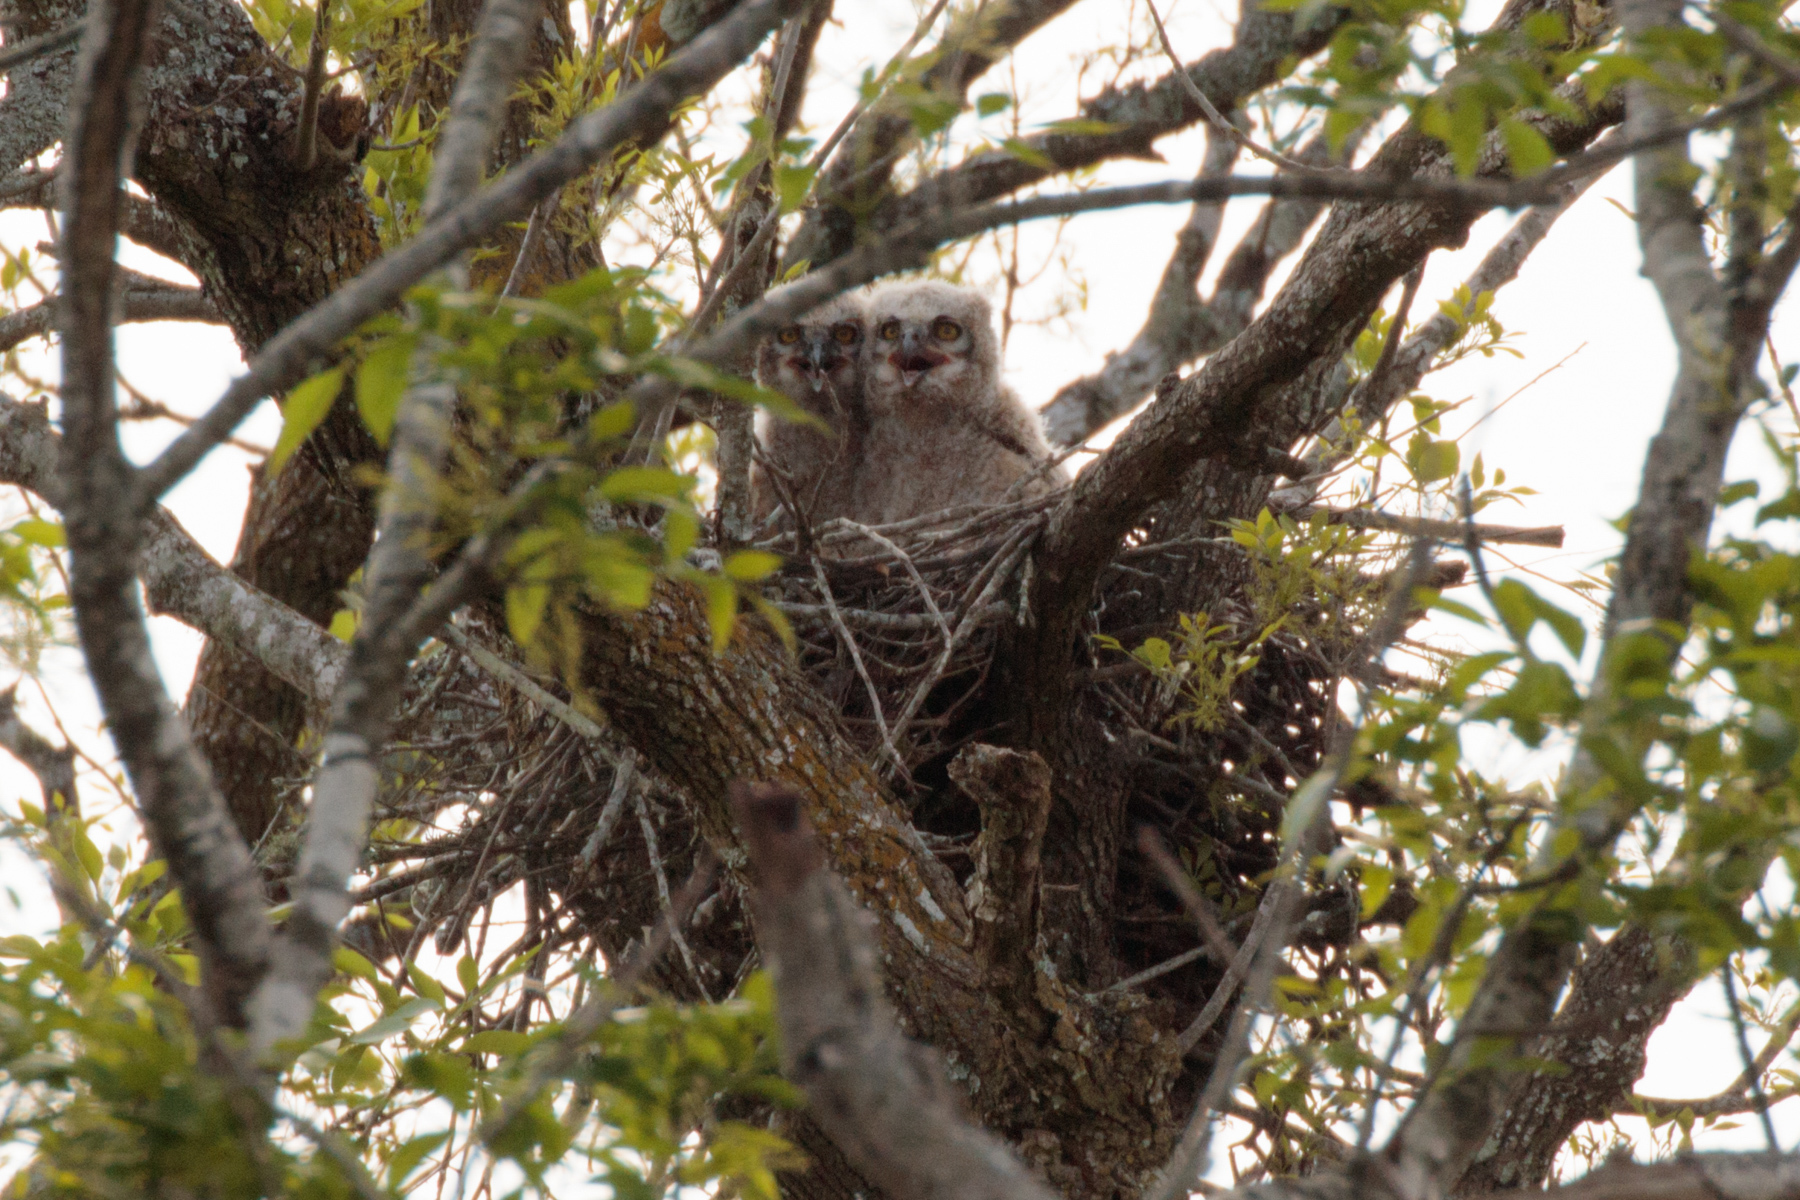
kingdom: Animalia
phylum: Chordata
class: Aves
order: Strigiformes
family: Strigidae
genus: Bubo
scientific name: Bubo virginianus
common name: Great horned owl
